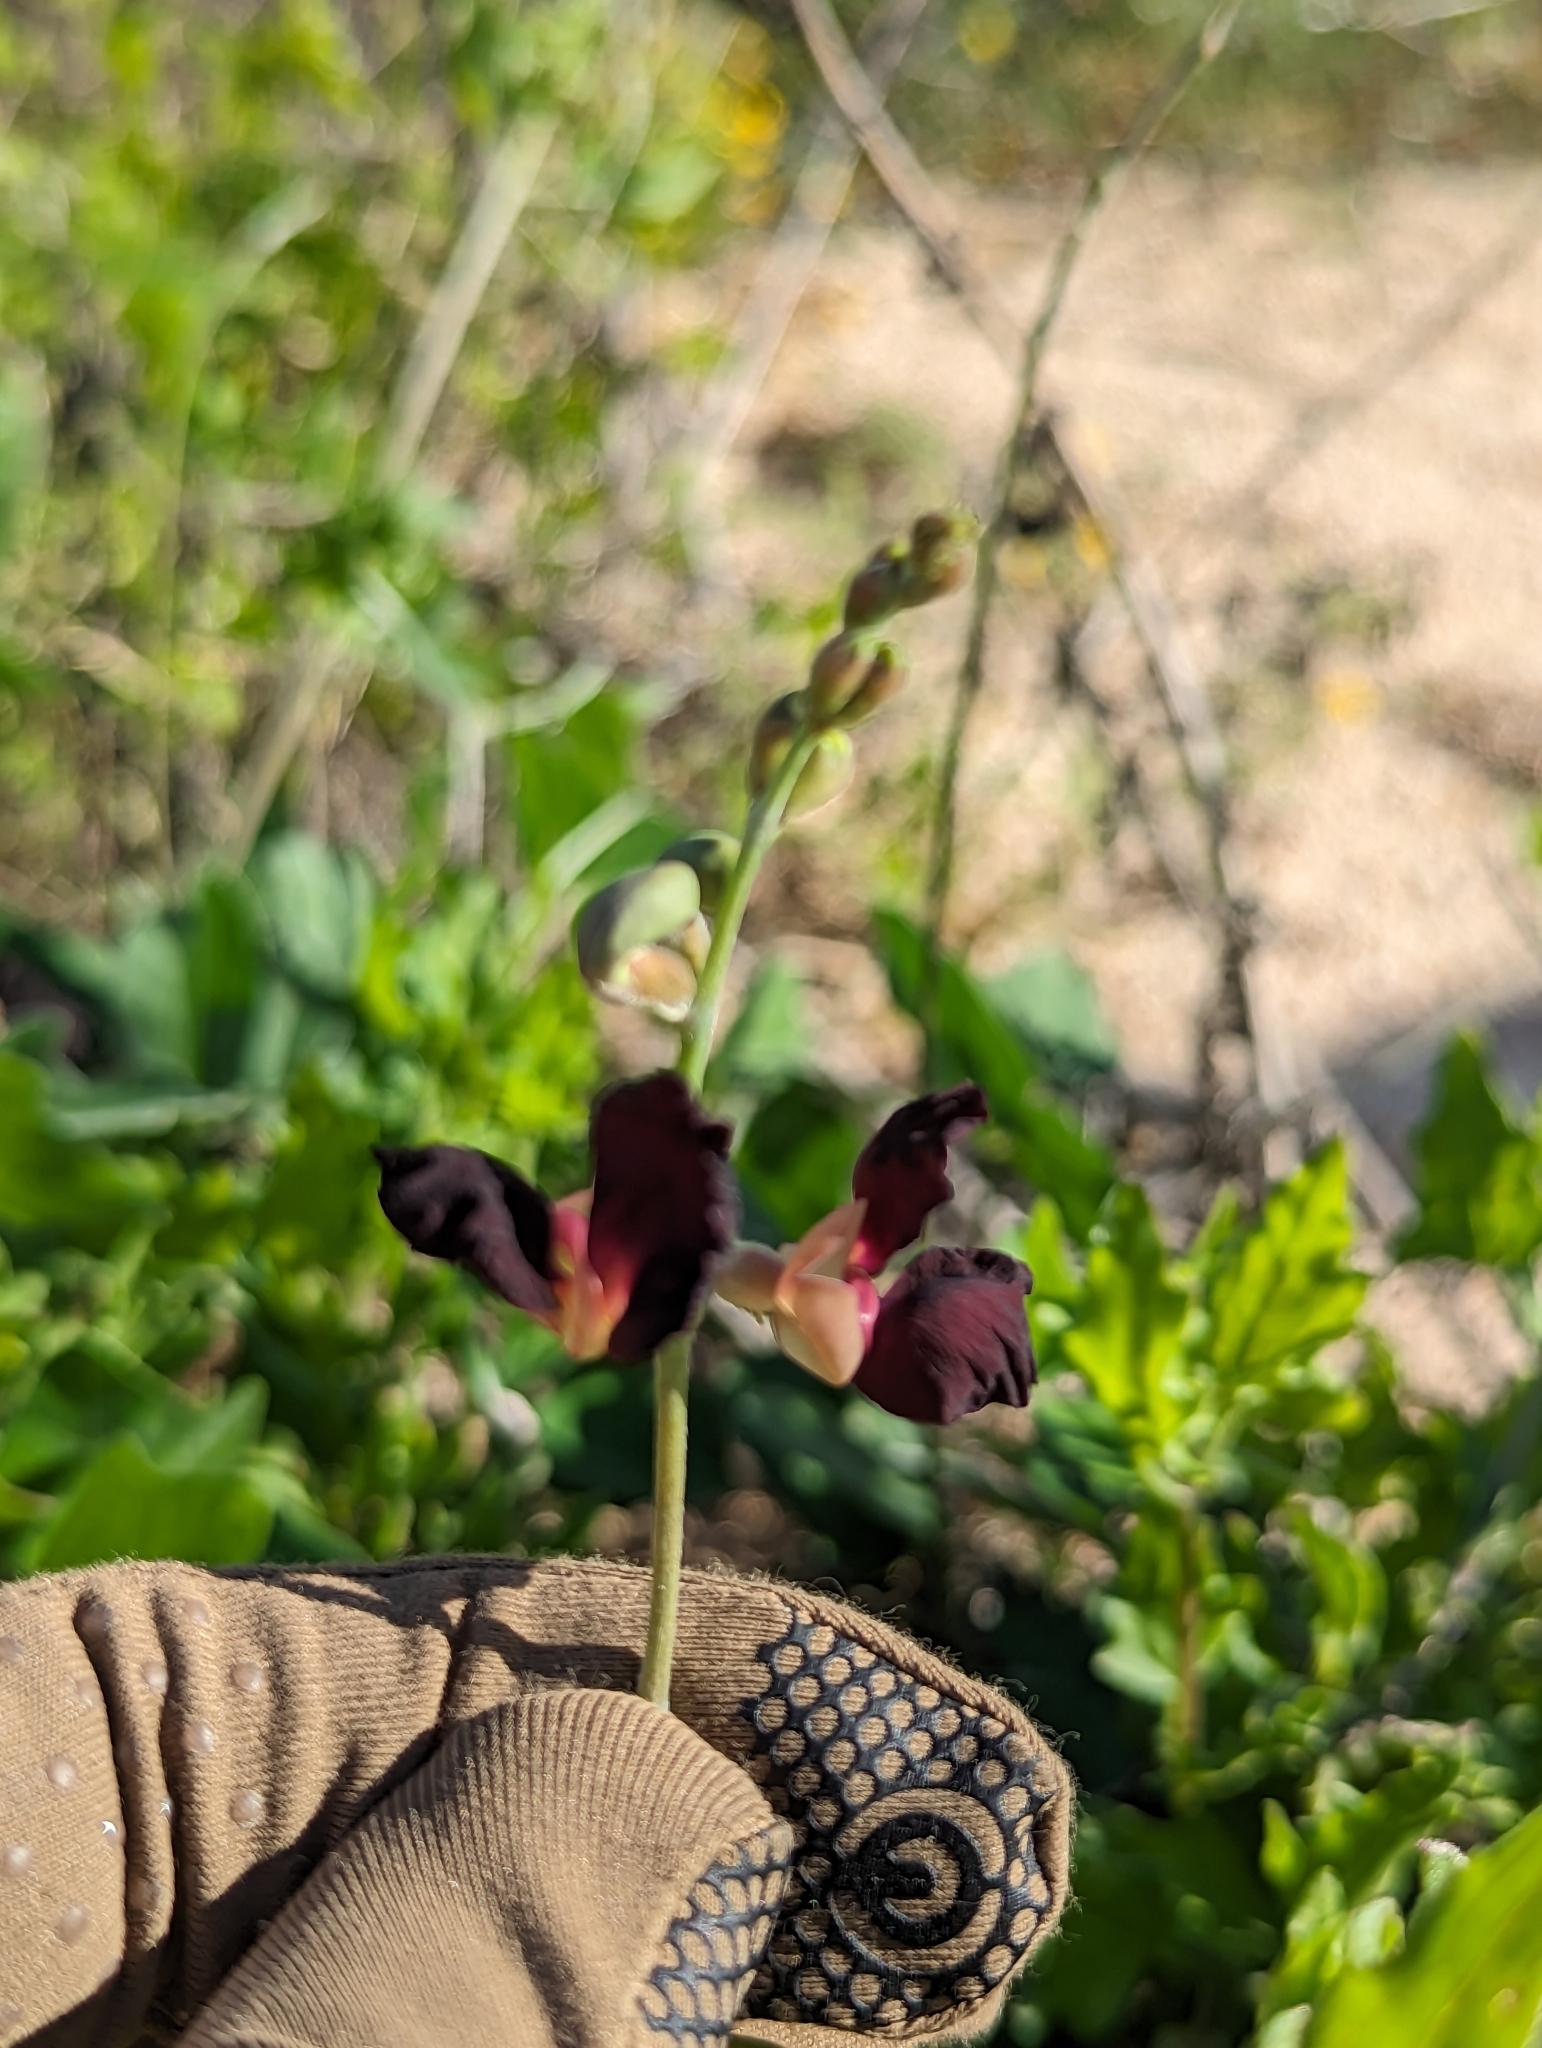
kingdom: Plantae
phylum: Tracheophyta
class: Magnoliopsida
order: Fabales
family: Fabaceae
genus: Macroptilium
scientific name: Macroptilium atropurpureum
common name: Purple bushbean
